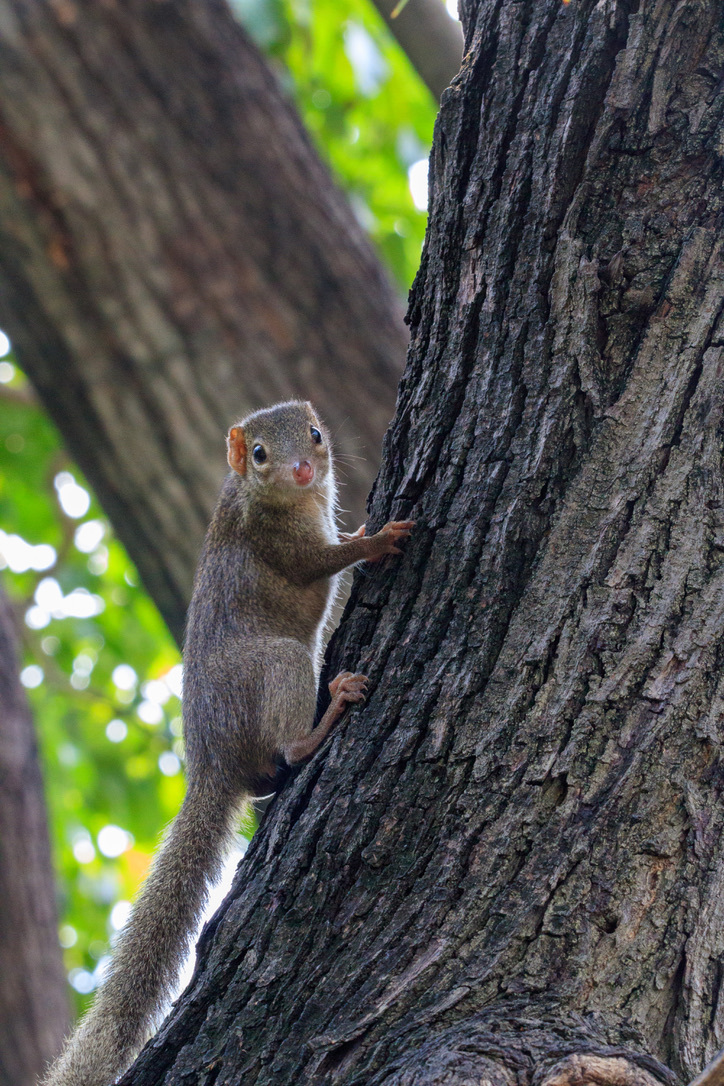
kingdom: Animalia
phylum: Chordata
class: Mammalia
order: Scandentia
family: Tupaiidae
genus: Tupaia
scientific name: Tupaia belangeri
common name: Northern treeshrew
